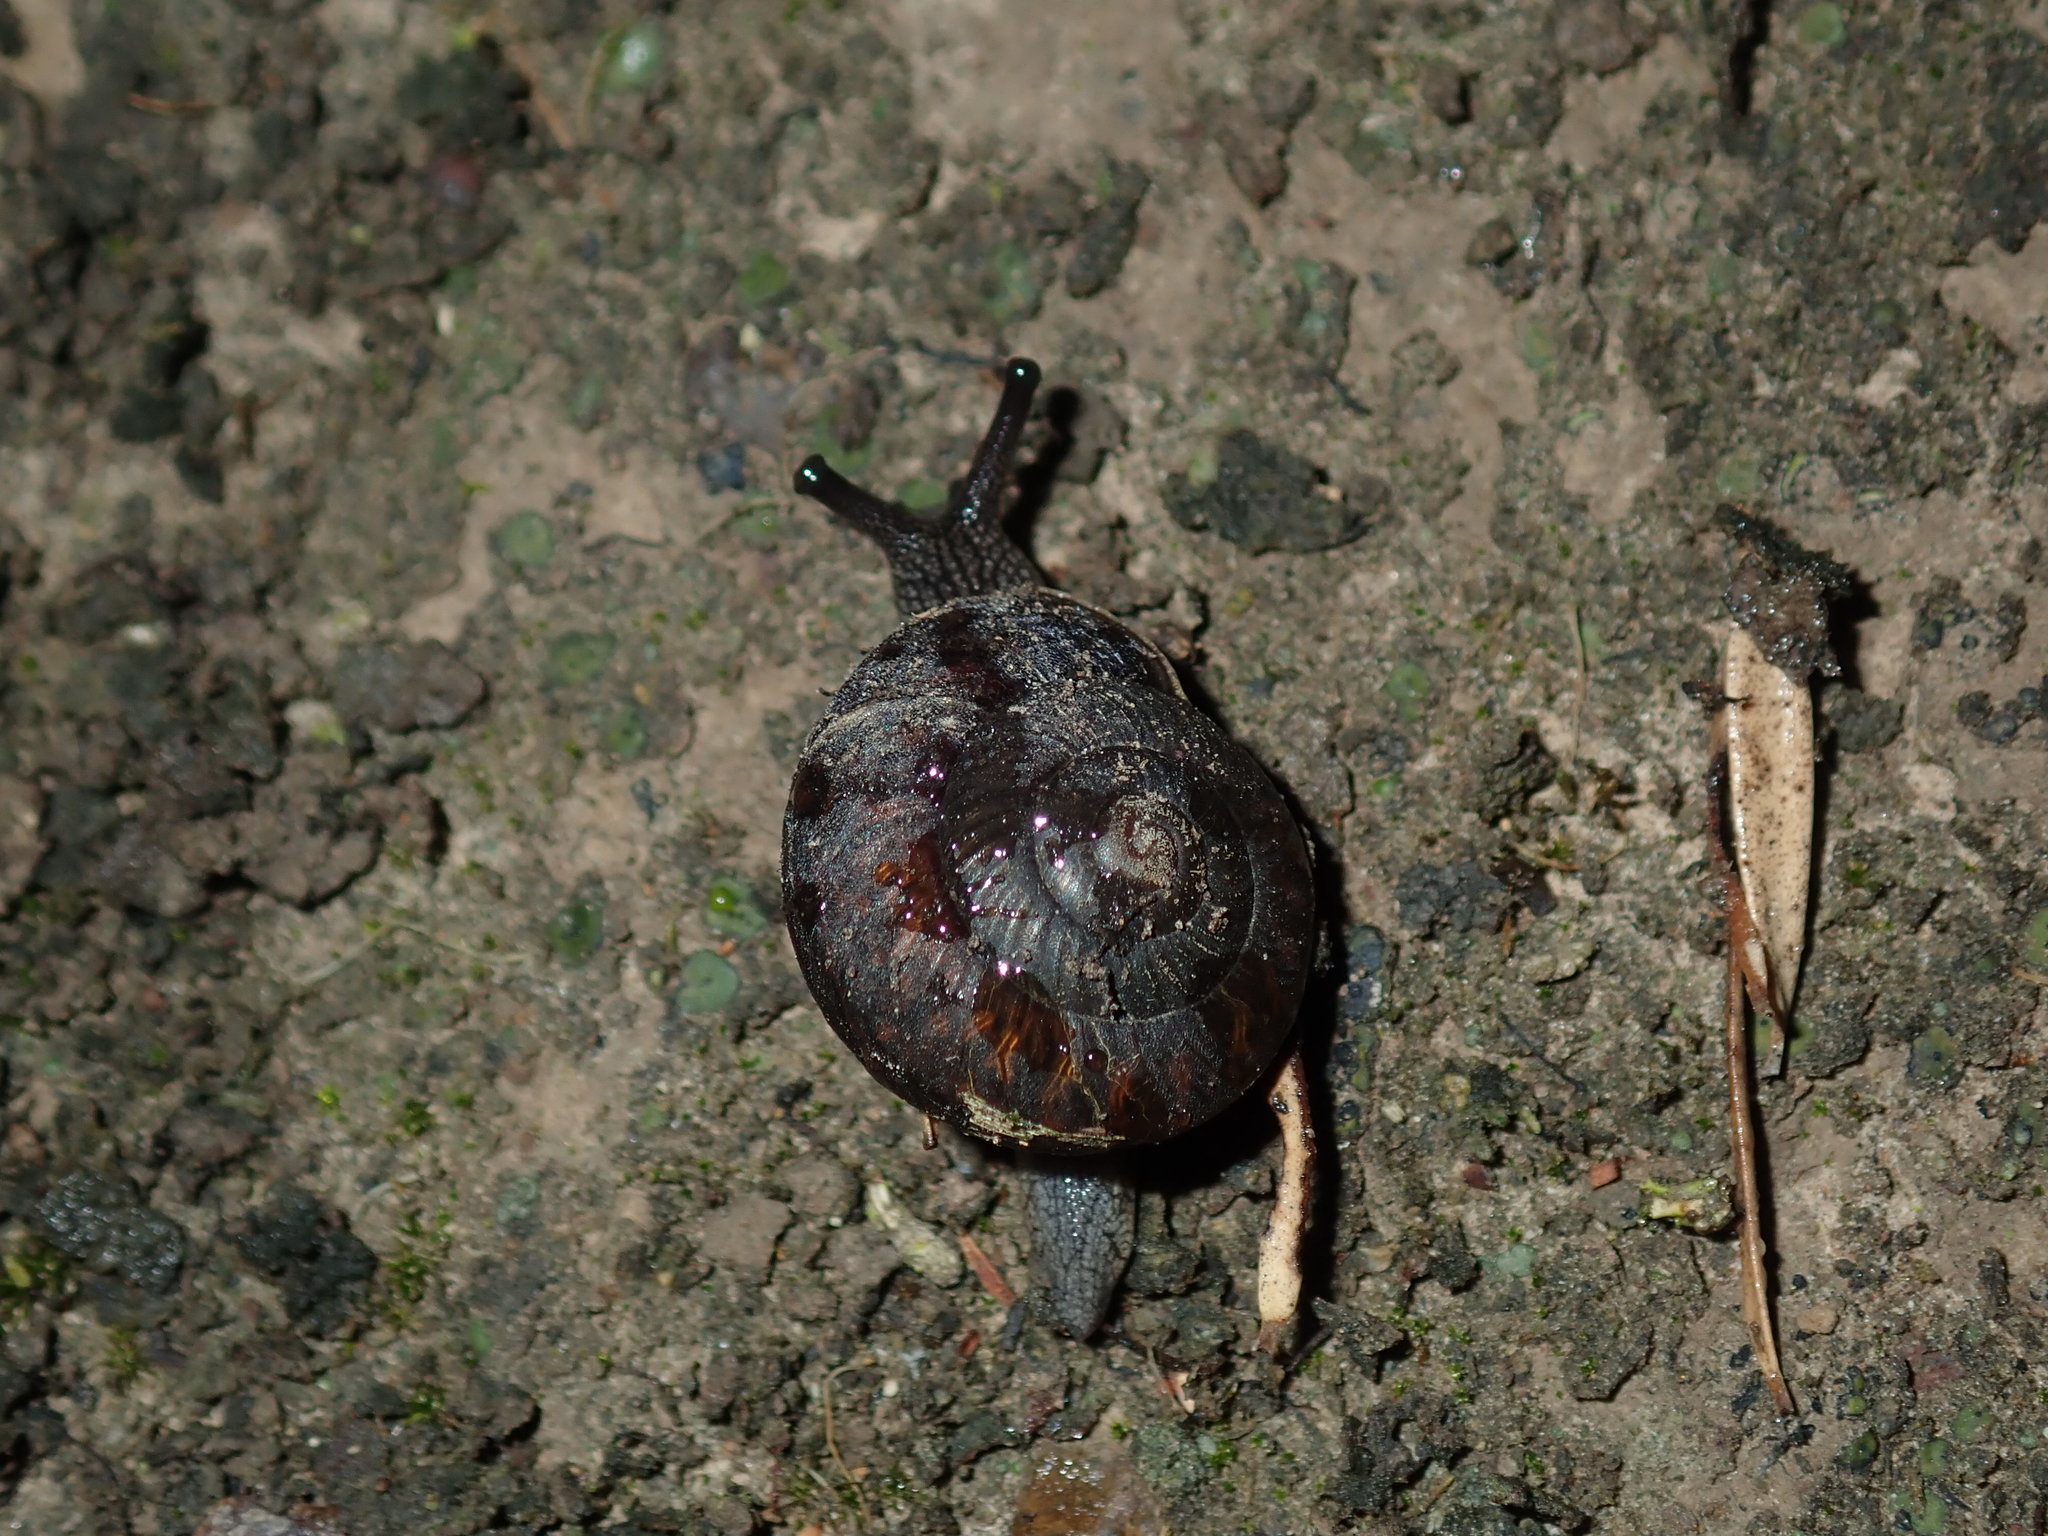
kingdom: Animalia
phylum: Mollusca
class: Gastropoda
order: Stylommatophora
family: Camaenidae
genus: Sauroconcha
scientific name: Sauroconcha sheai
